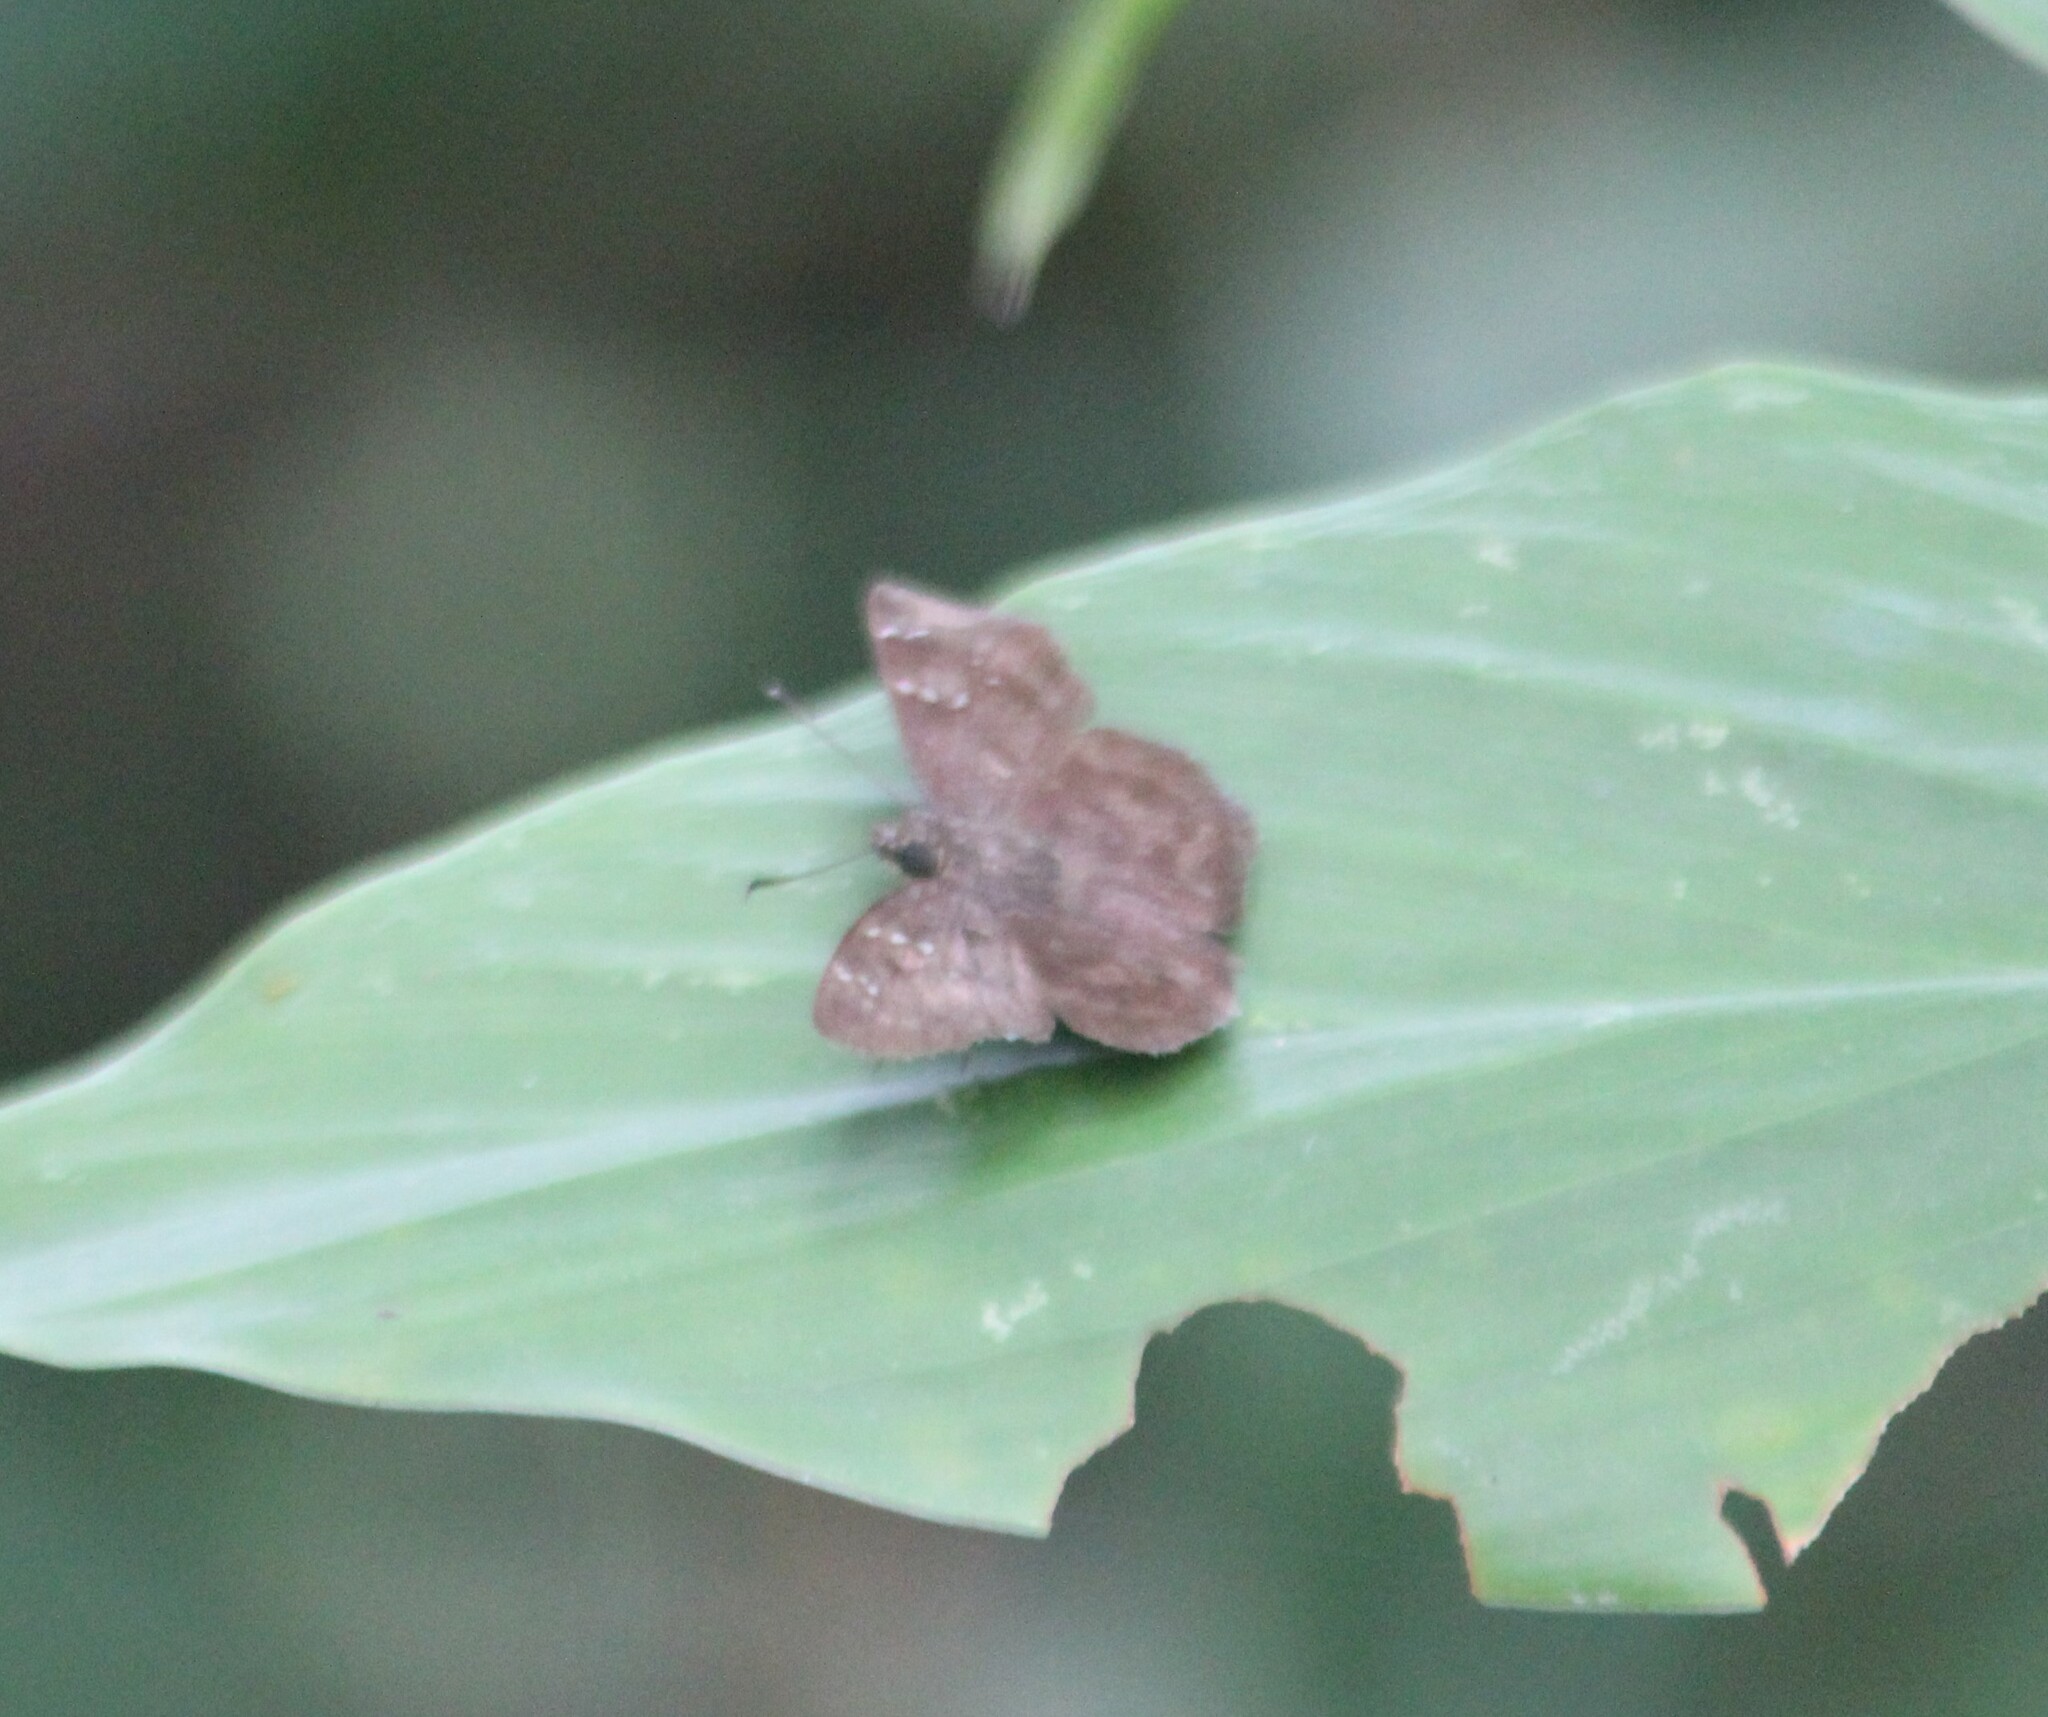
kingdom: Animalia
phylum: Arthropoda
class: Insecta
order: Lepidoptera
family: Hesperiidae
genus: Sarangesa
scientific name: Sarangesa dasahara
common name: Common small flat
